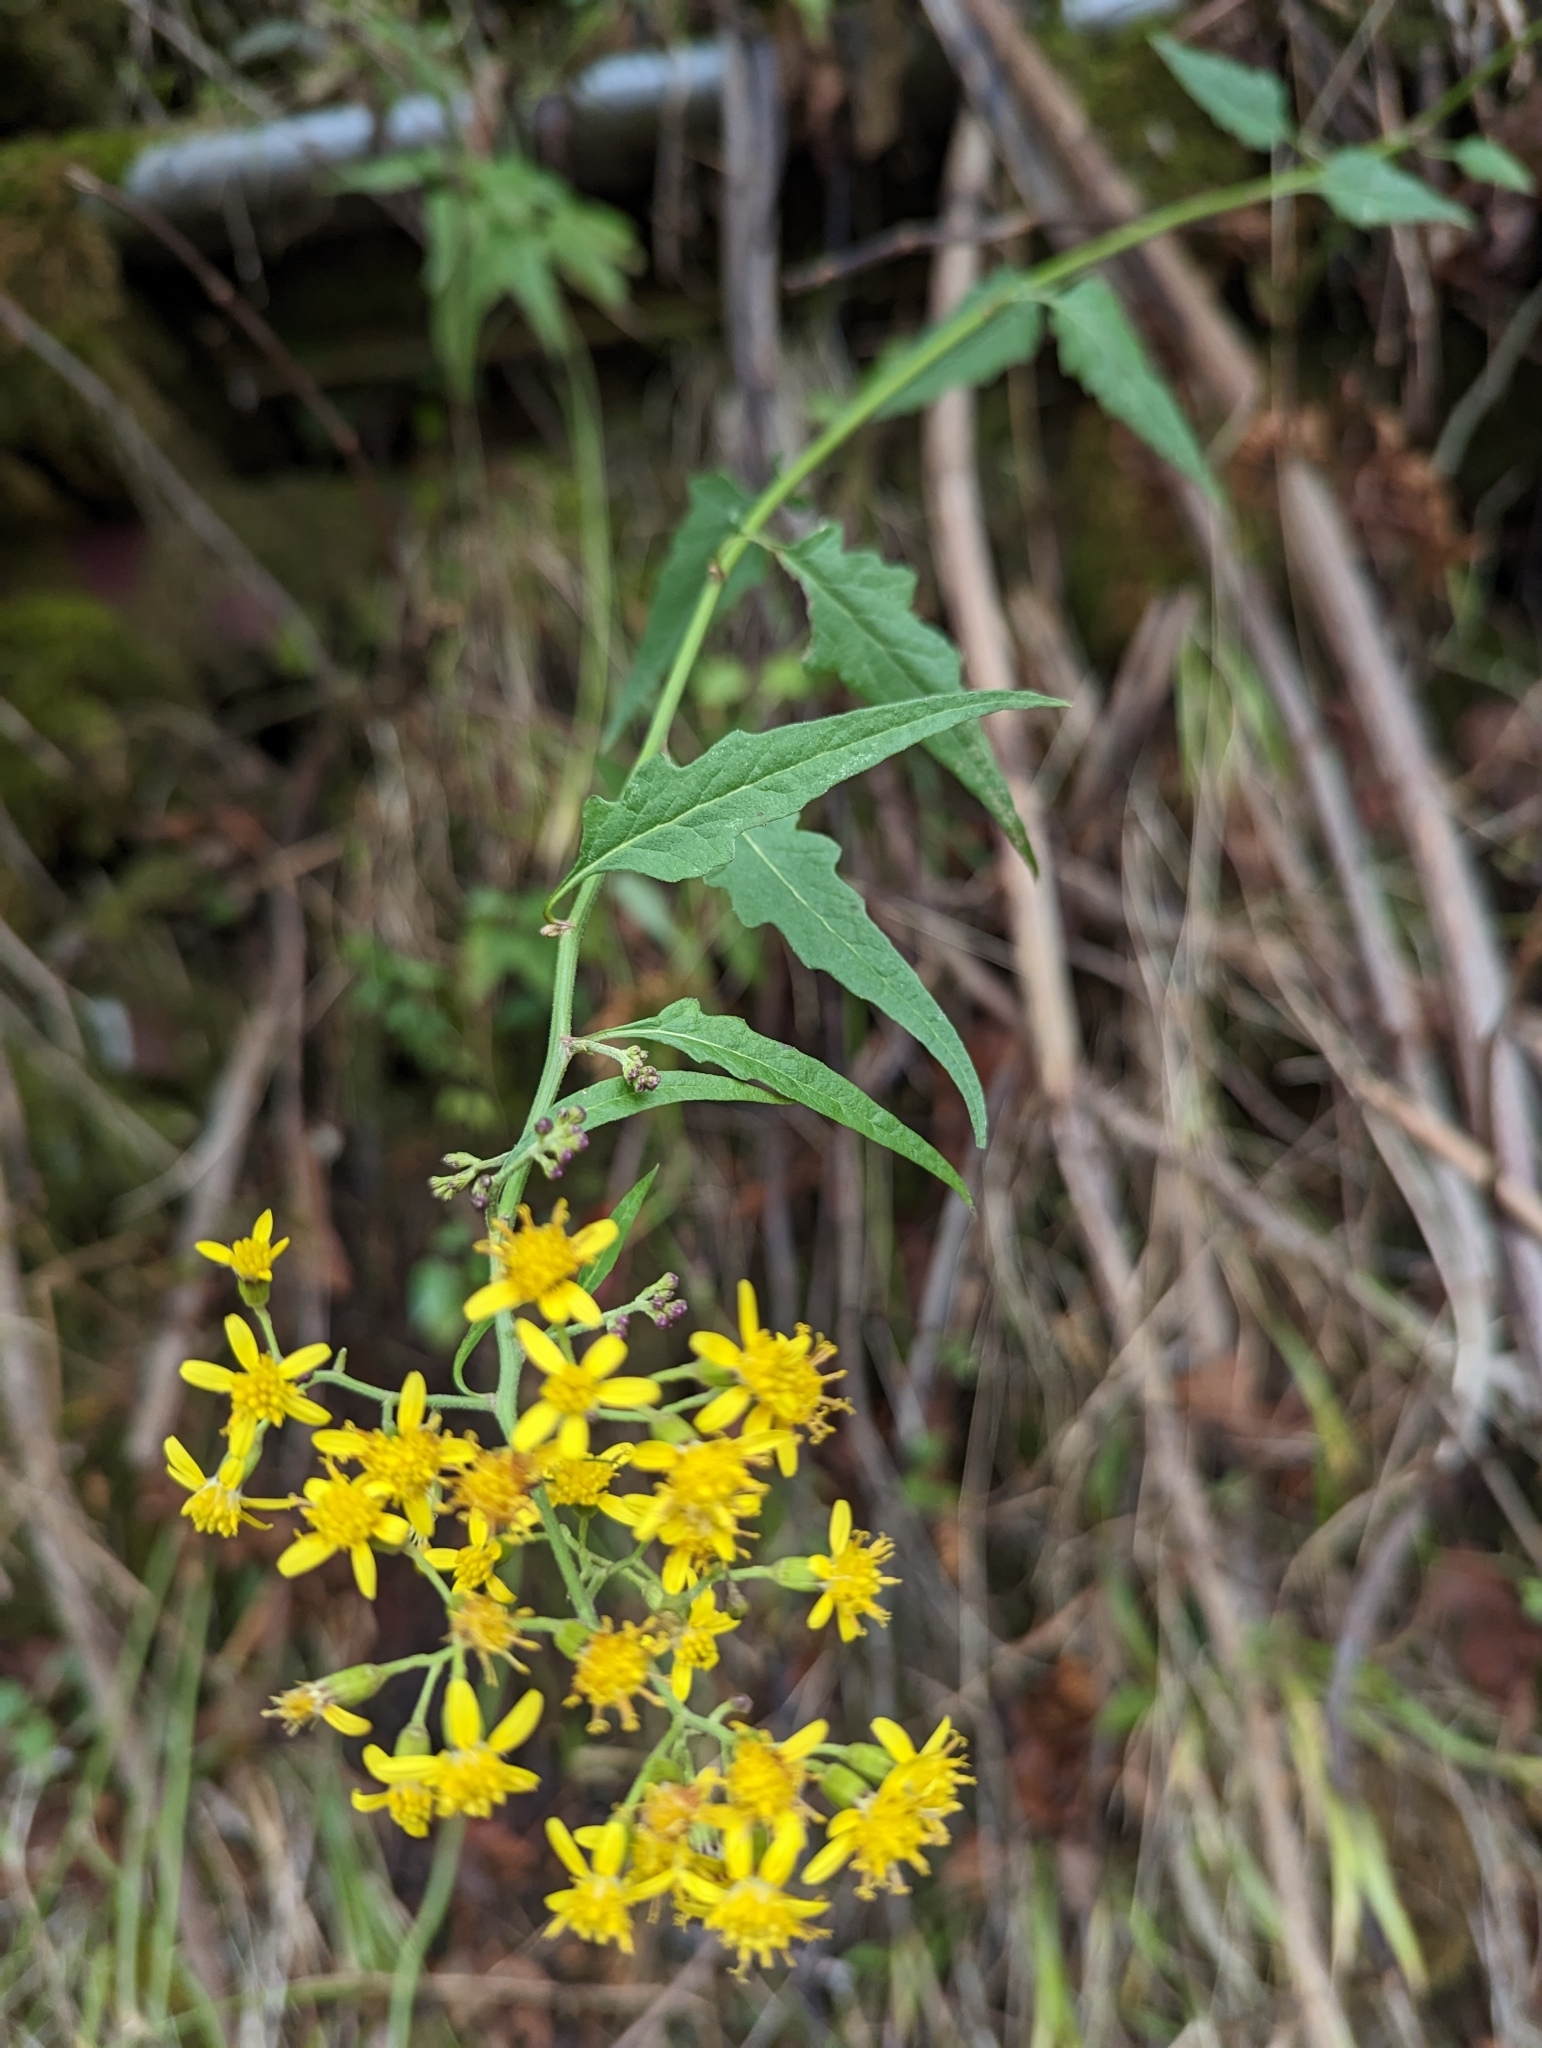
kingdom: Plantae
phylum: Tracheophyta
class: Magnoliopsida
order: Asterales
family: Asteraceae
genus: Senecio
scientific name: Senecio scandens
